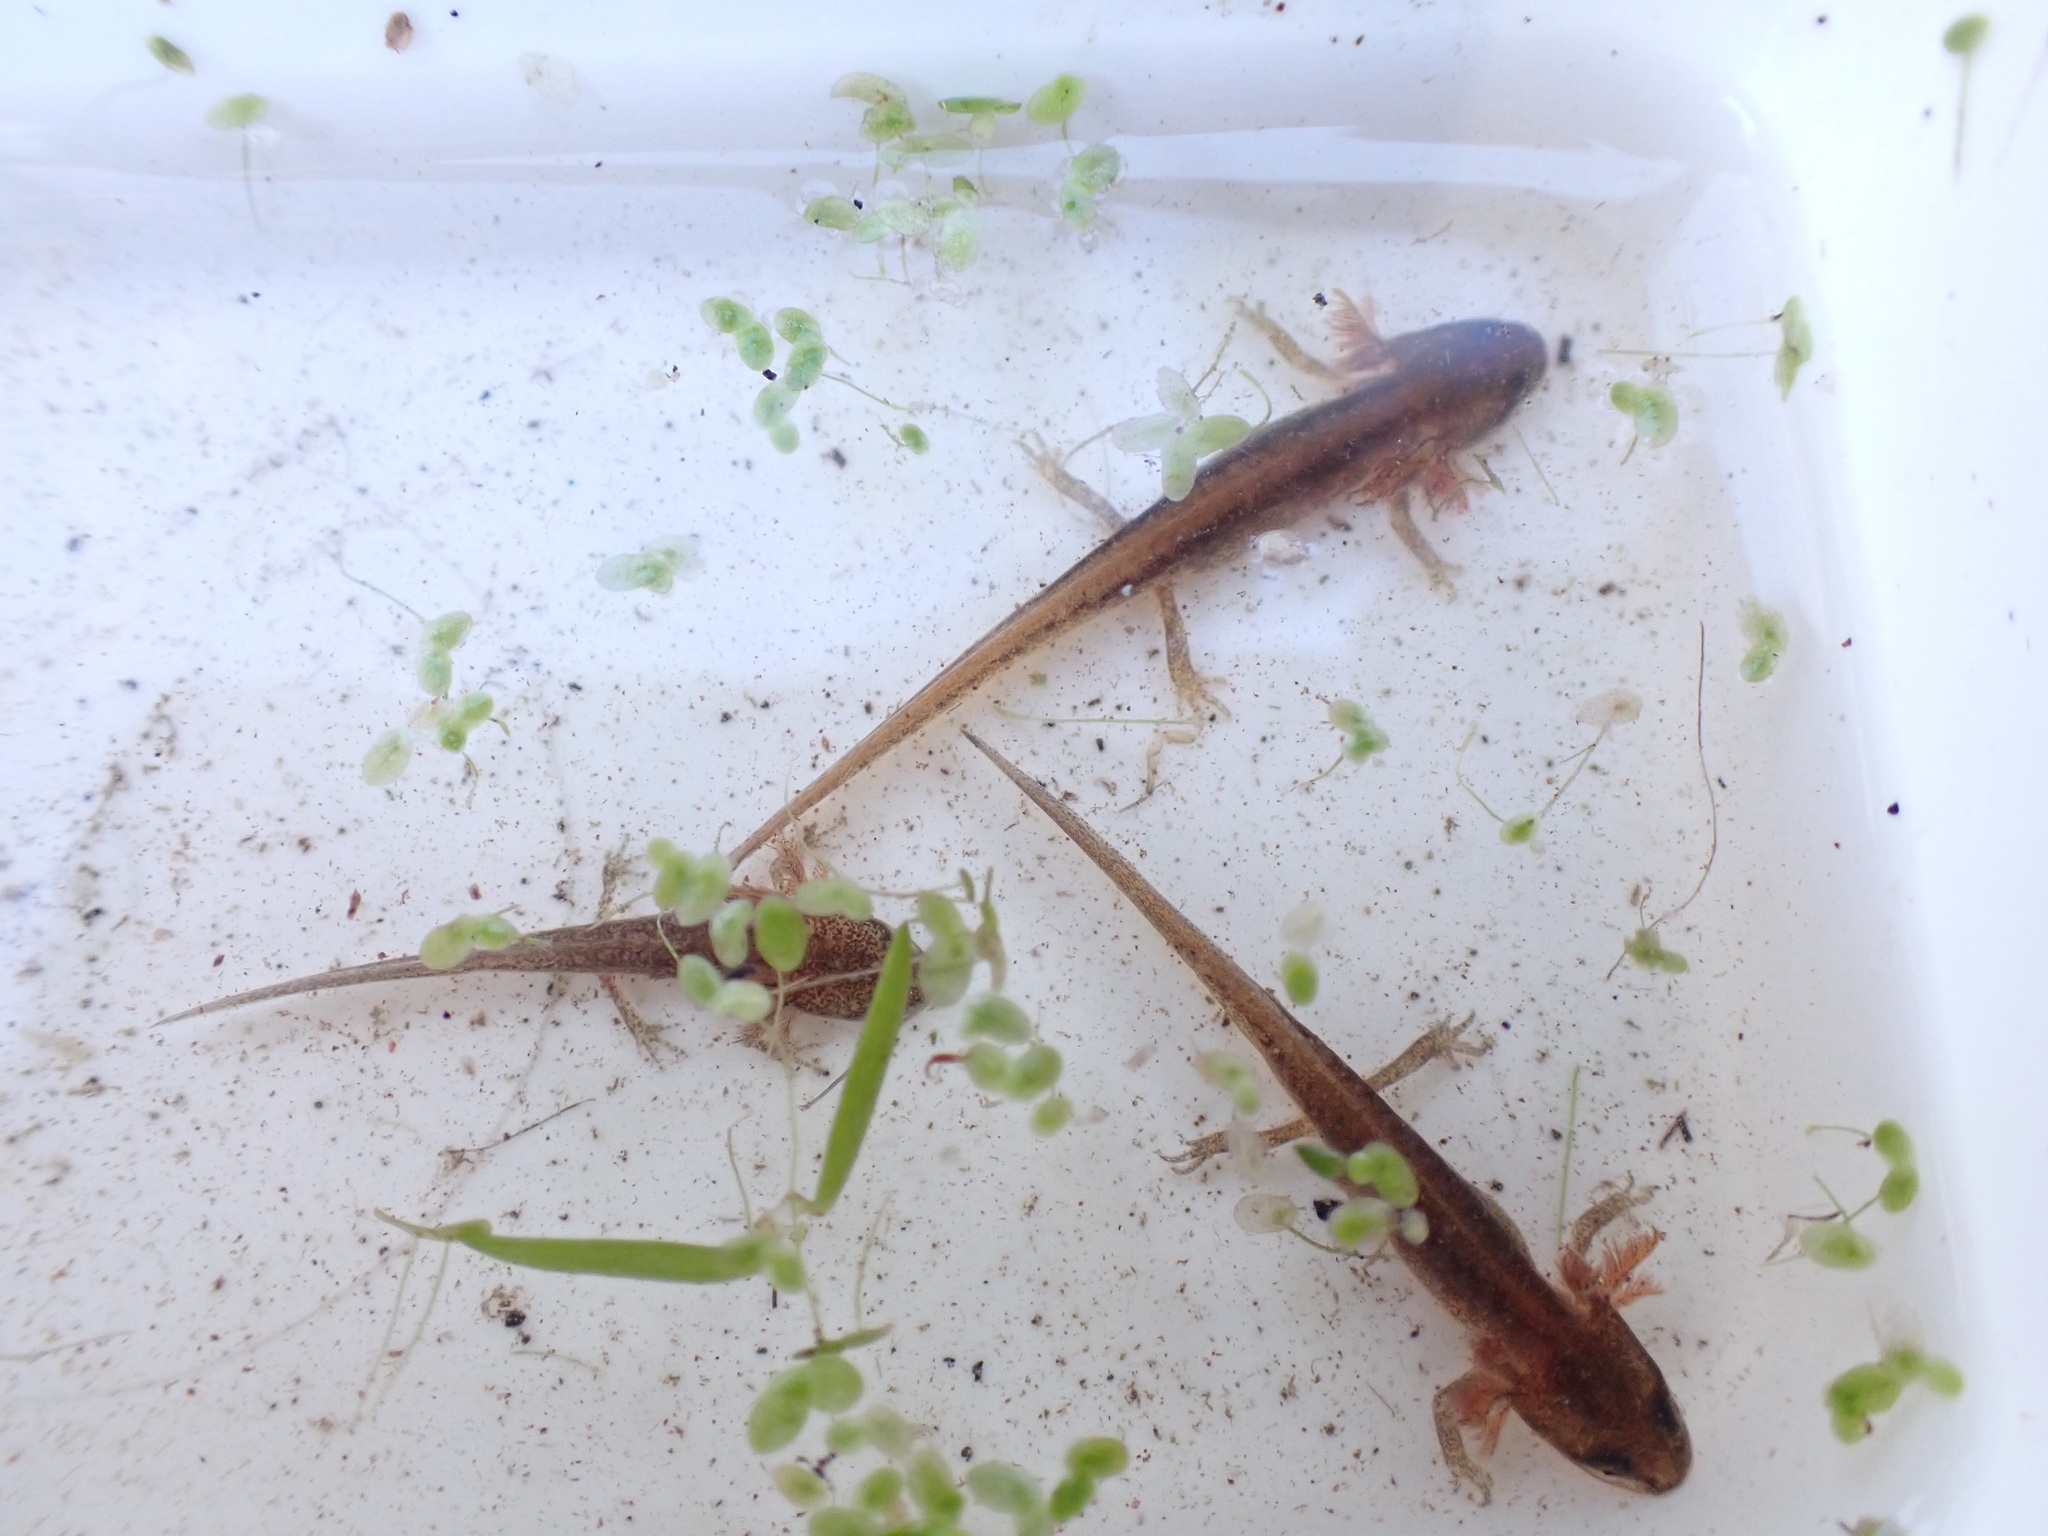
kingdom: Animalia
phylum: Chordata
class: Amphibia
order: Caudata
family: Salamandridae
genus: Lissotriton
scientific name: Lissotriton
